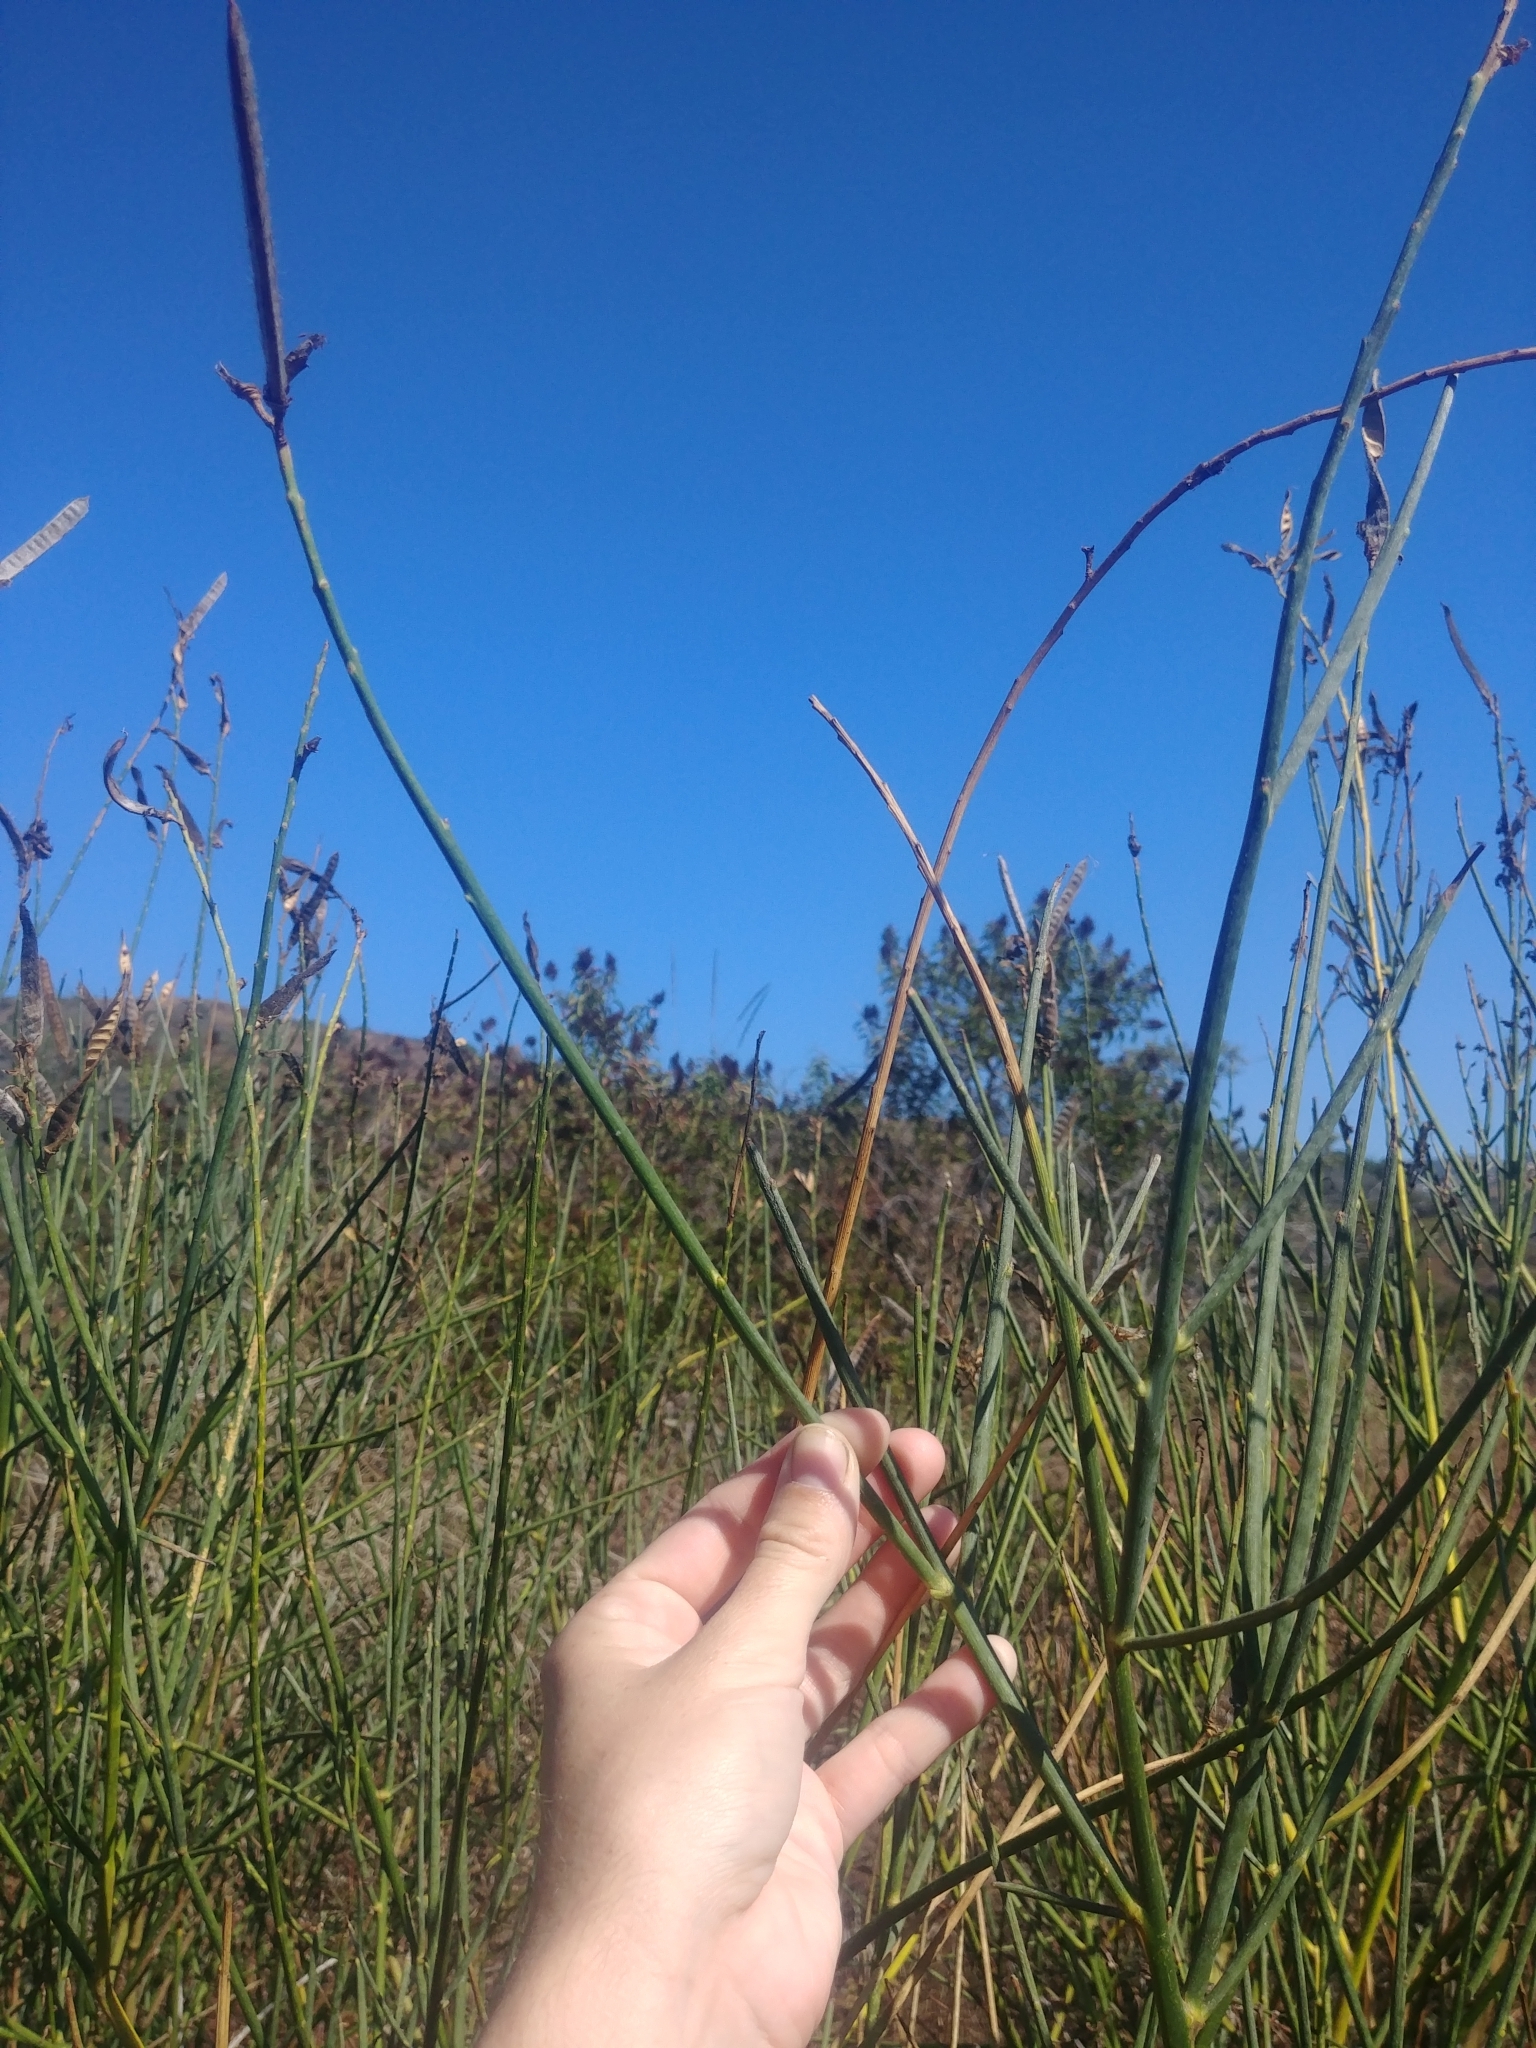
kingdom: Plantae
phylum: Tracheophyta
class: Magnoliopsida
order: Fabales
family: Fabaceae
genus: Spartium
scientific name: Spartium junceum
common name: Spanish broom
